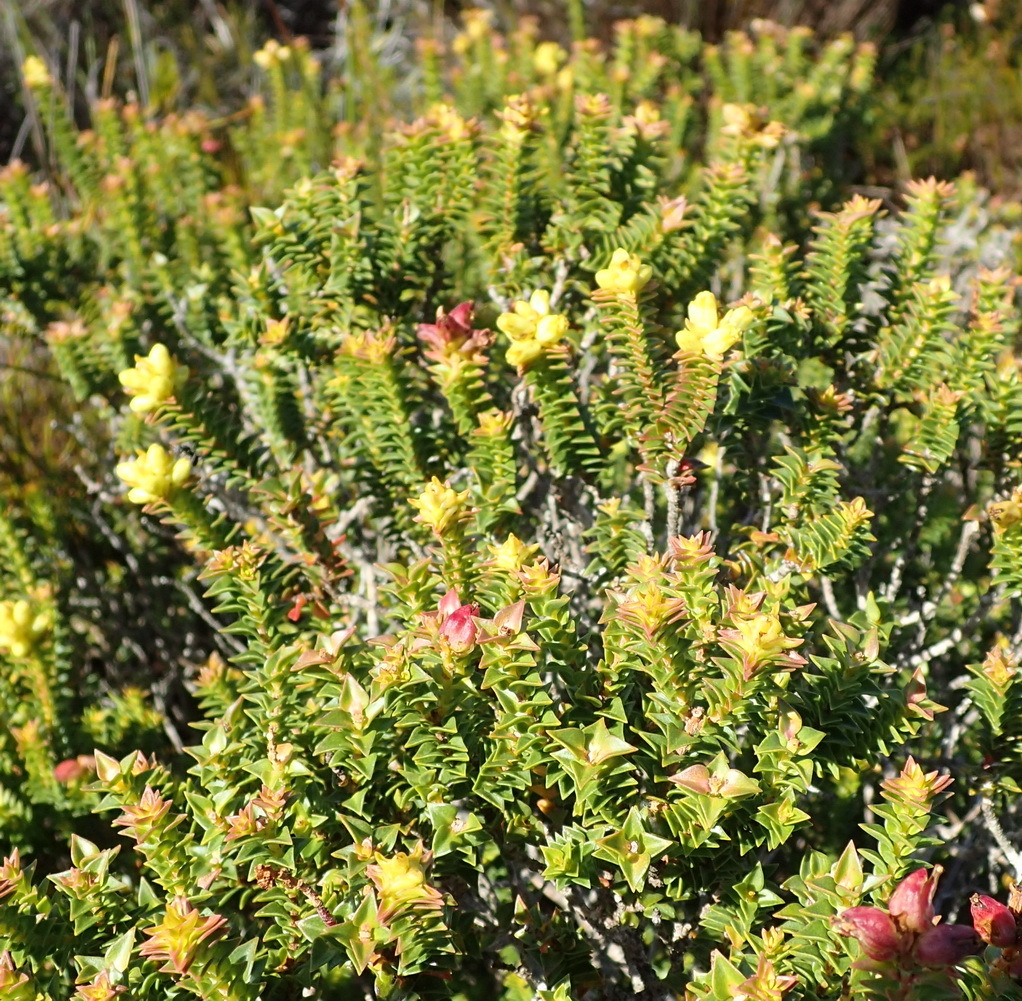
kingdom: Plantae
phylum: Tracheophyta
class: Magnoliopsida
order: Myrtales
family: Penaeaceae
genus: Penaea
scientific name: Penaea mucronata
